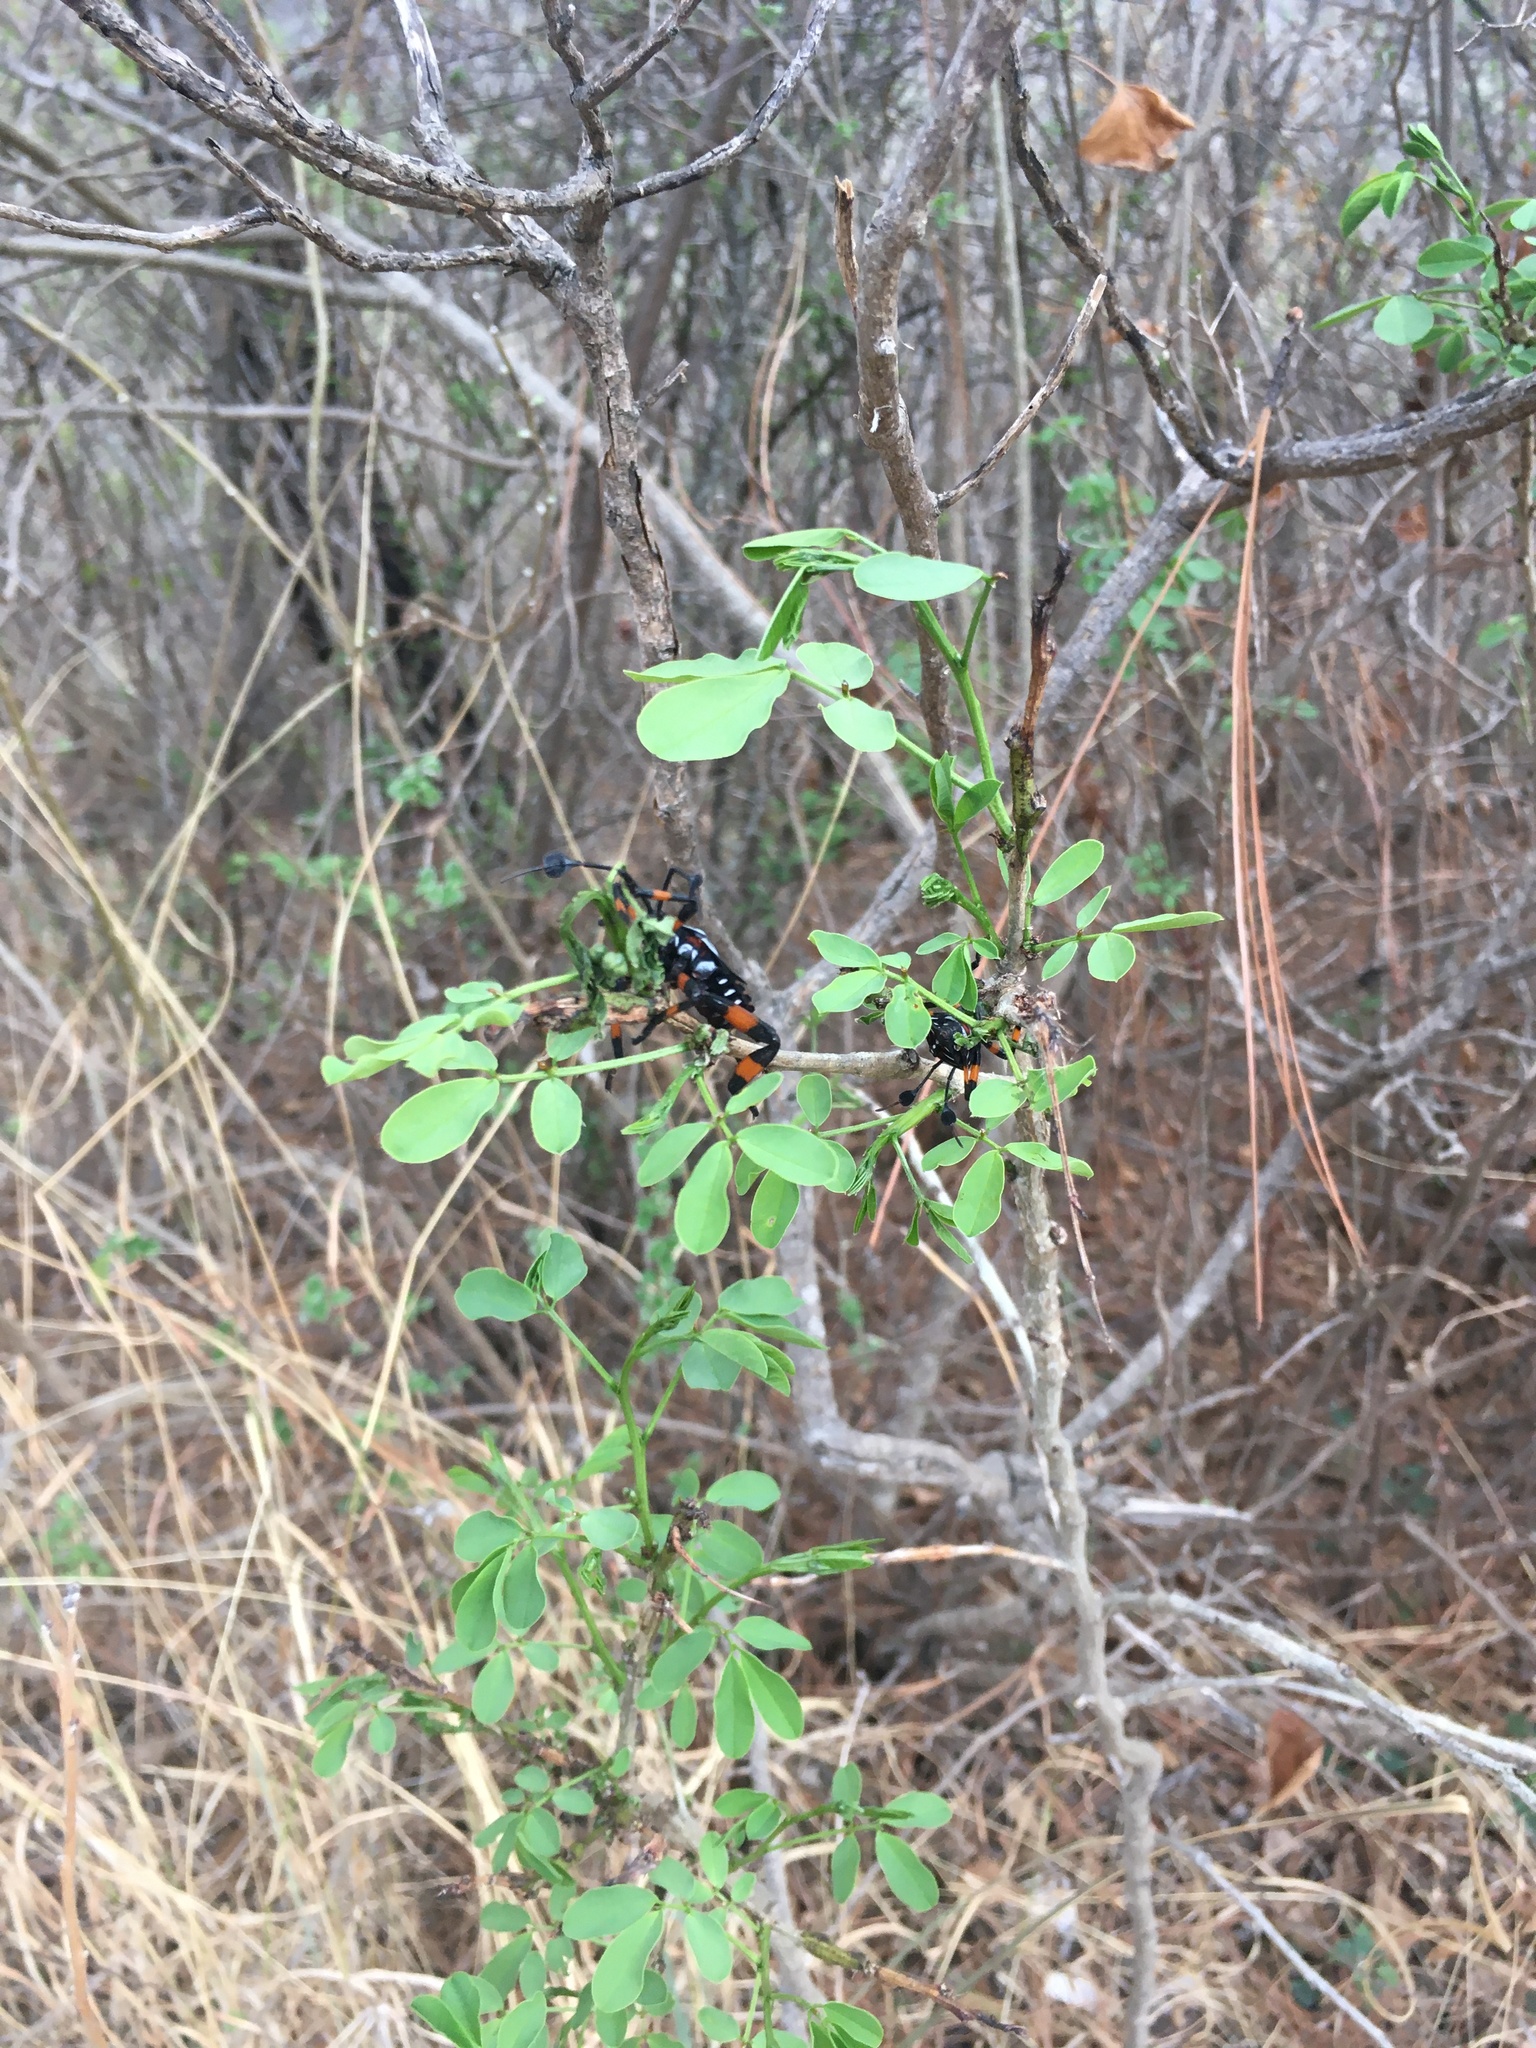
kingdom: Animalia
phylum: Arthropoda
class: Insecta
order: Hemiptera
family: Coreidae
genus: Thasus
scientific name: Thasus
